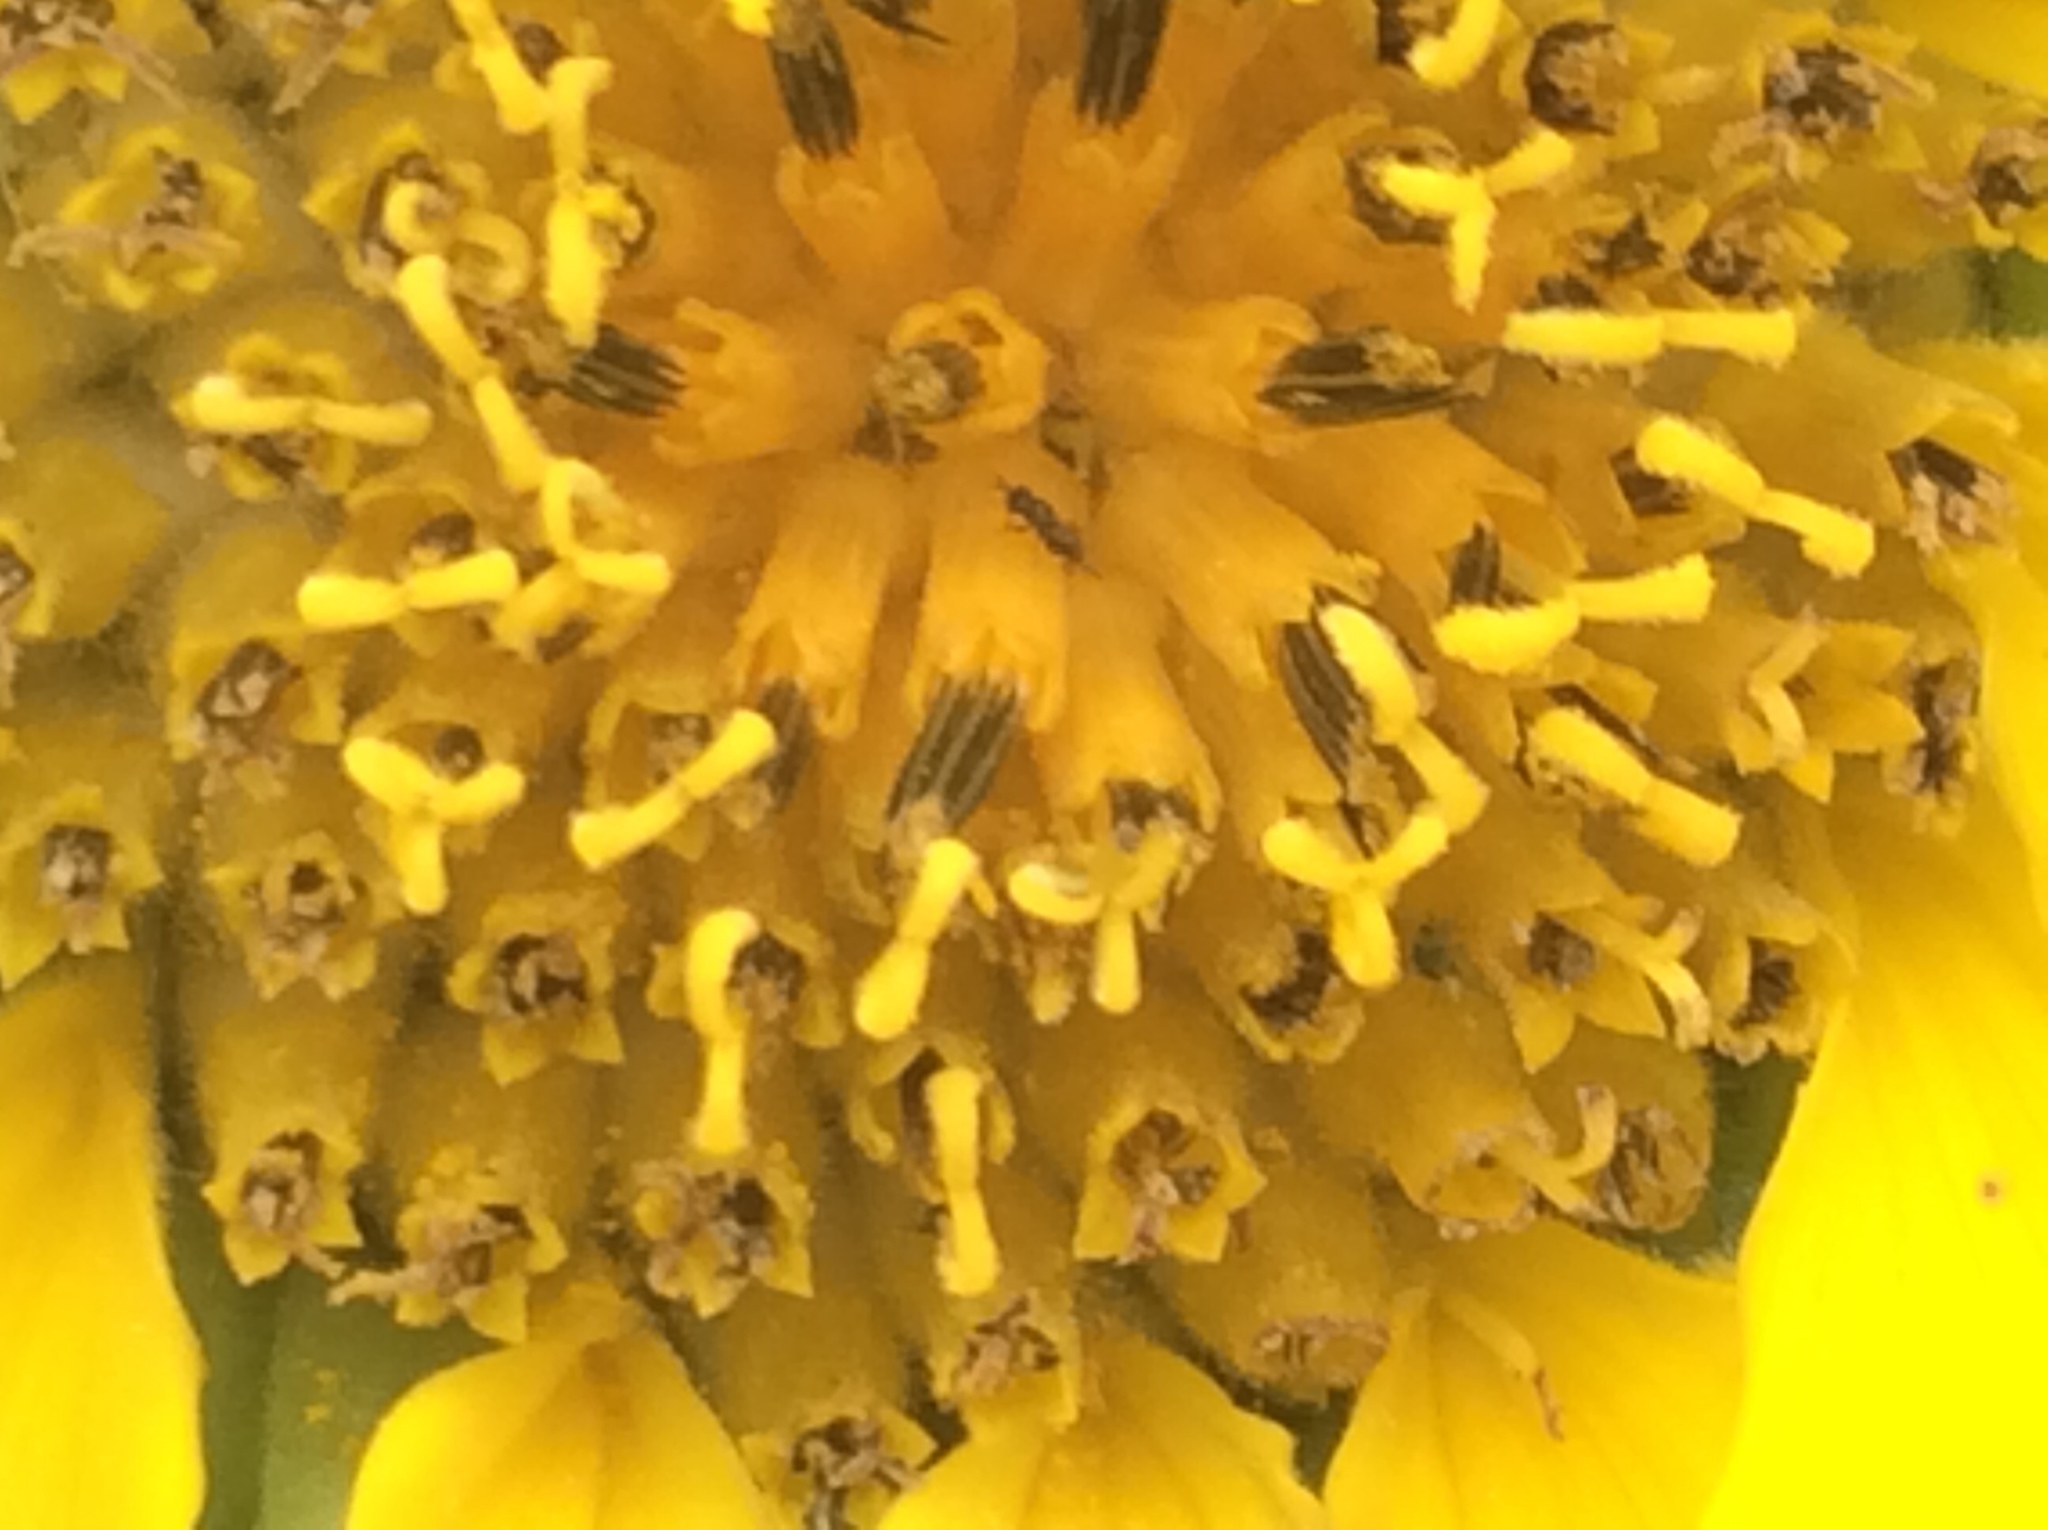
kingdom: Plantae
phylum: Tracheophyta
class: Magnoliopsida
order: Asterales
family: Asteraceae
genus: Helianthus
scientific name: Helianthus annuus
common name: Sunflower
